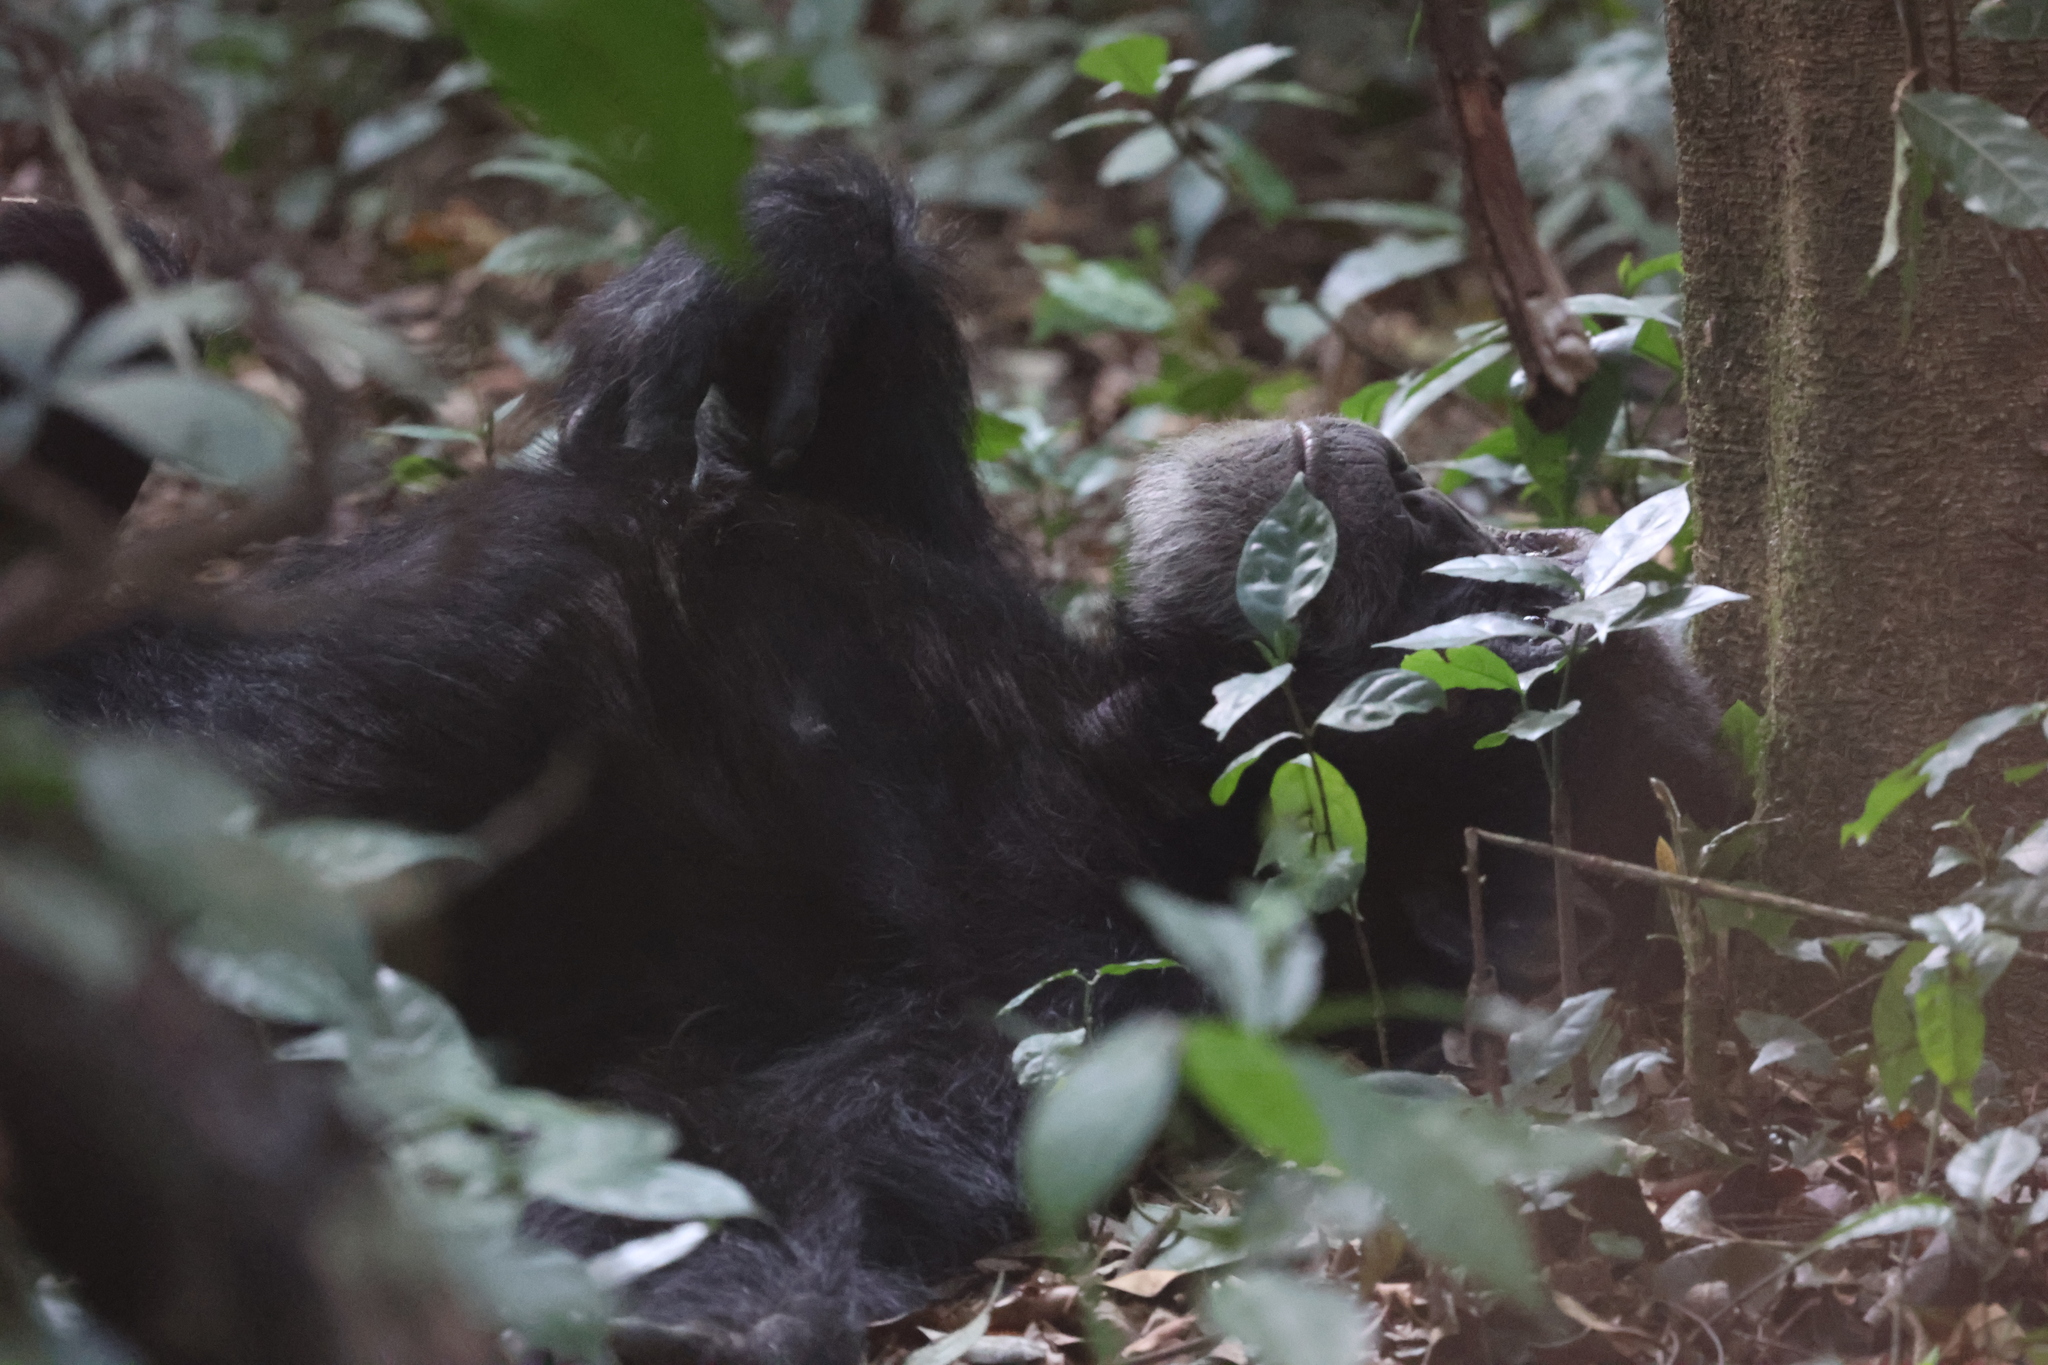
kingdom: Animalia
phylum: Chordata
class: Mammalia
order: Primates
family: Hominidae
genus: Pan
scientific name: Pan troglodytes
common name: Chimpanzee
